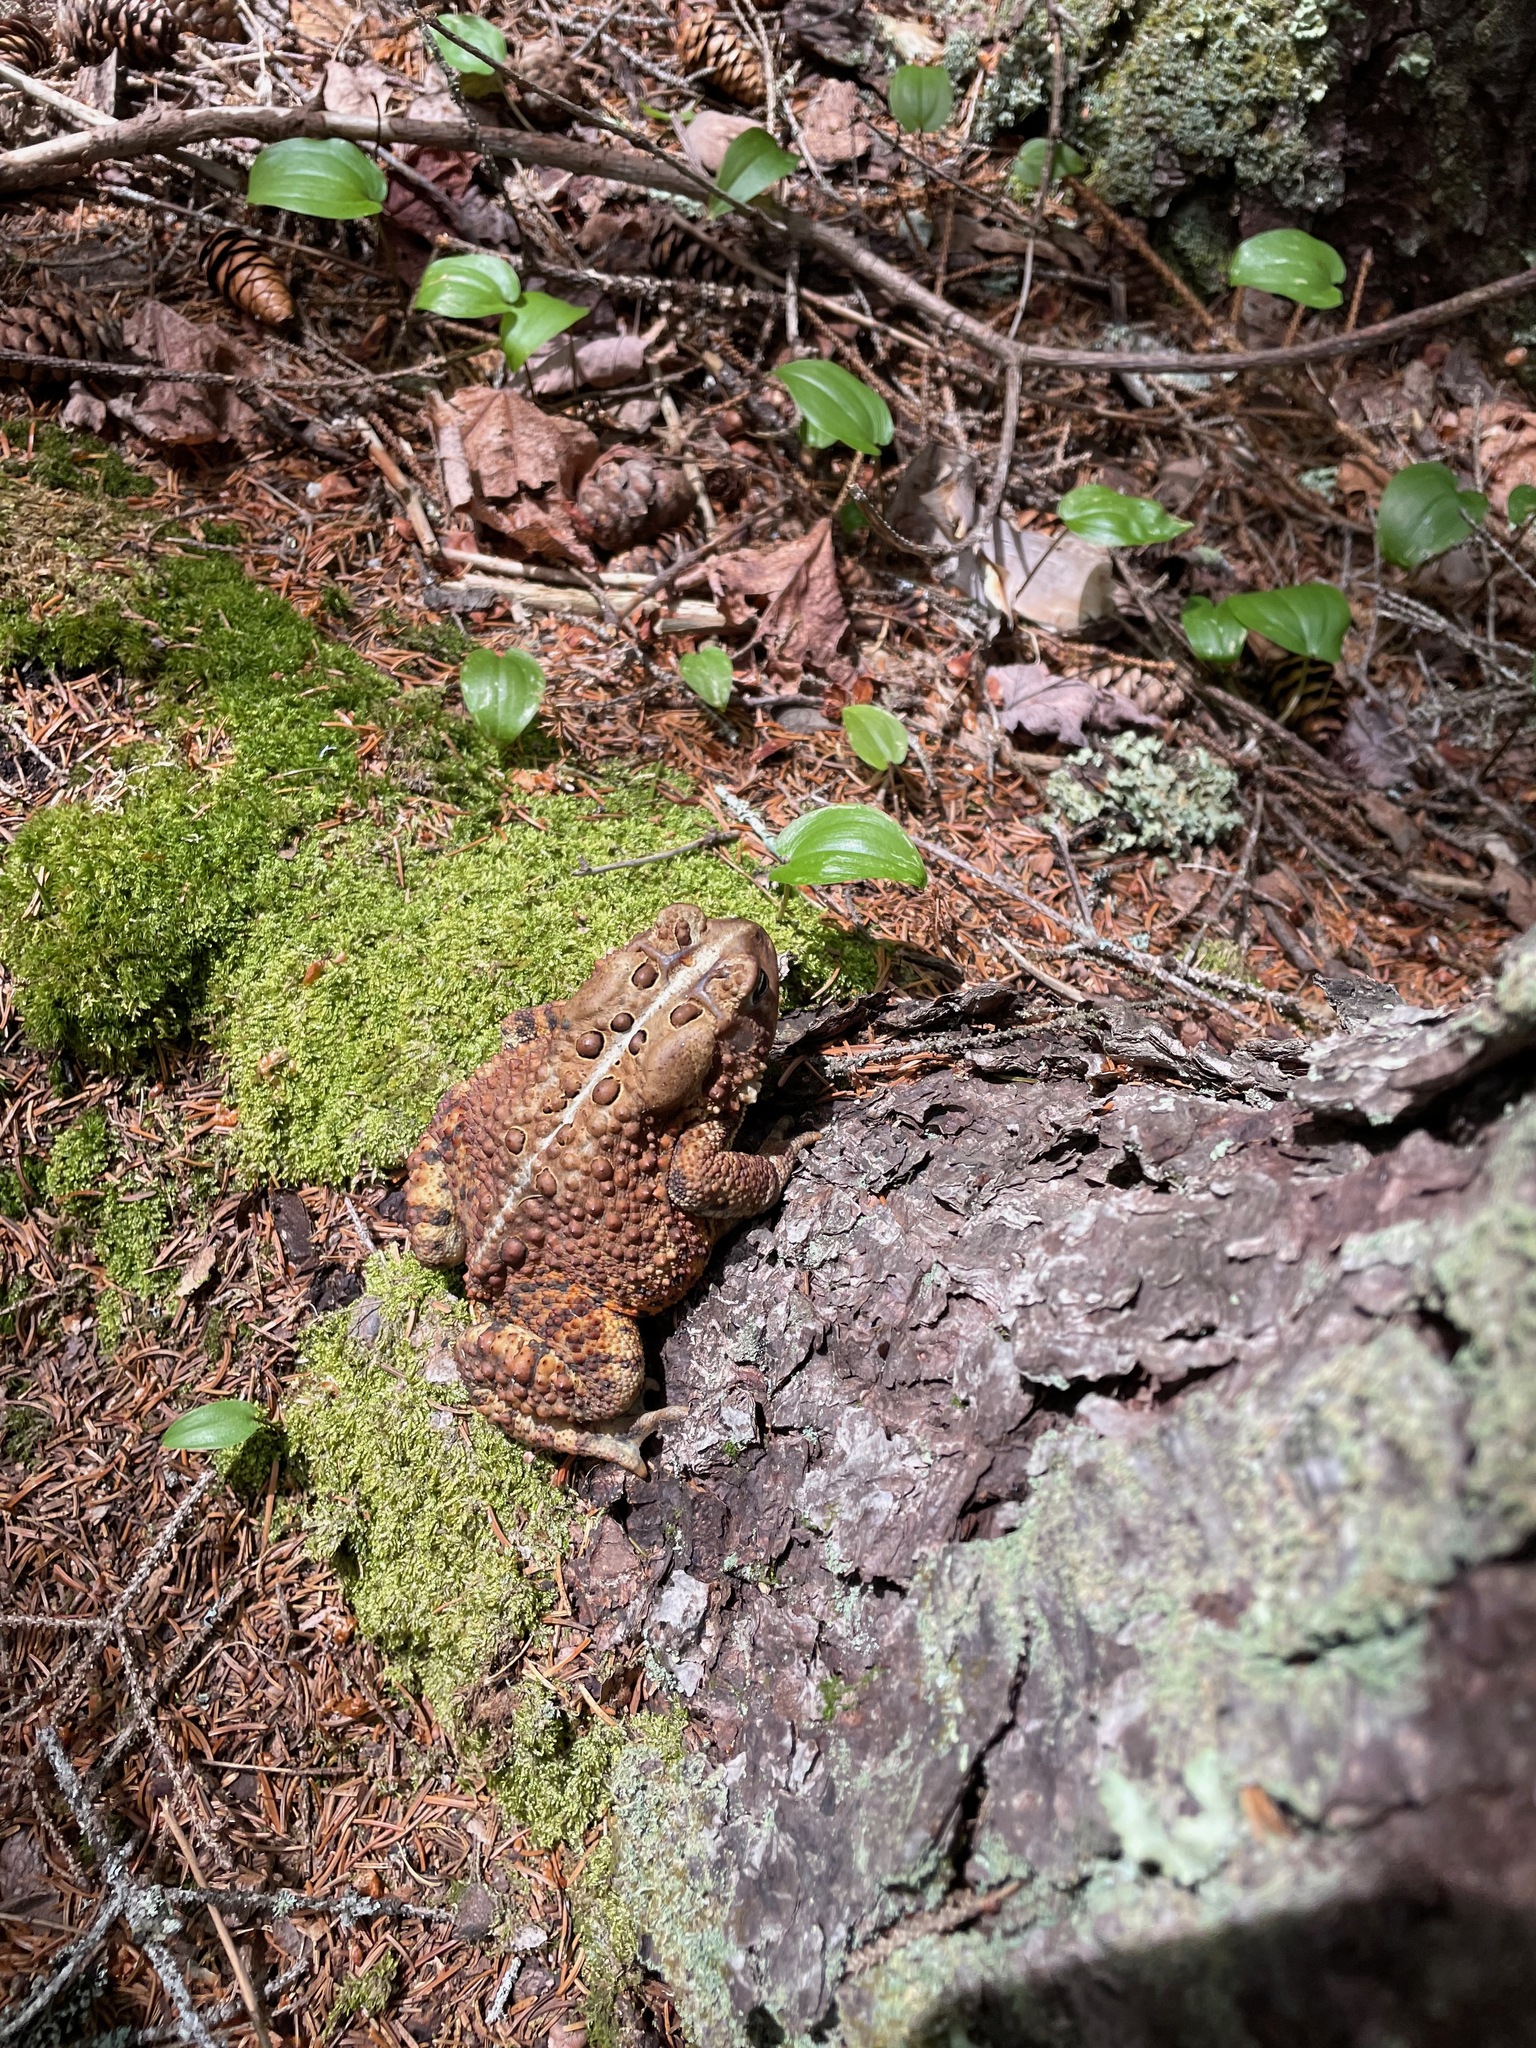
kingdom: Animalia
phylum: Chordata
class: Amphibia
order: Anura
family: Bufonidae
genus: Anaxyrus
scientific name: Anaxyrus americanus
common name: American toad
